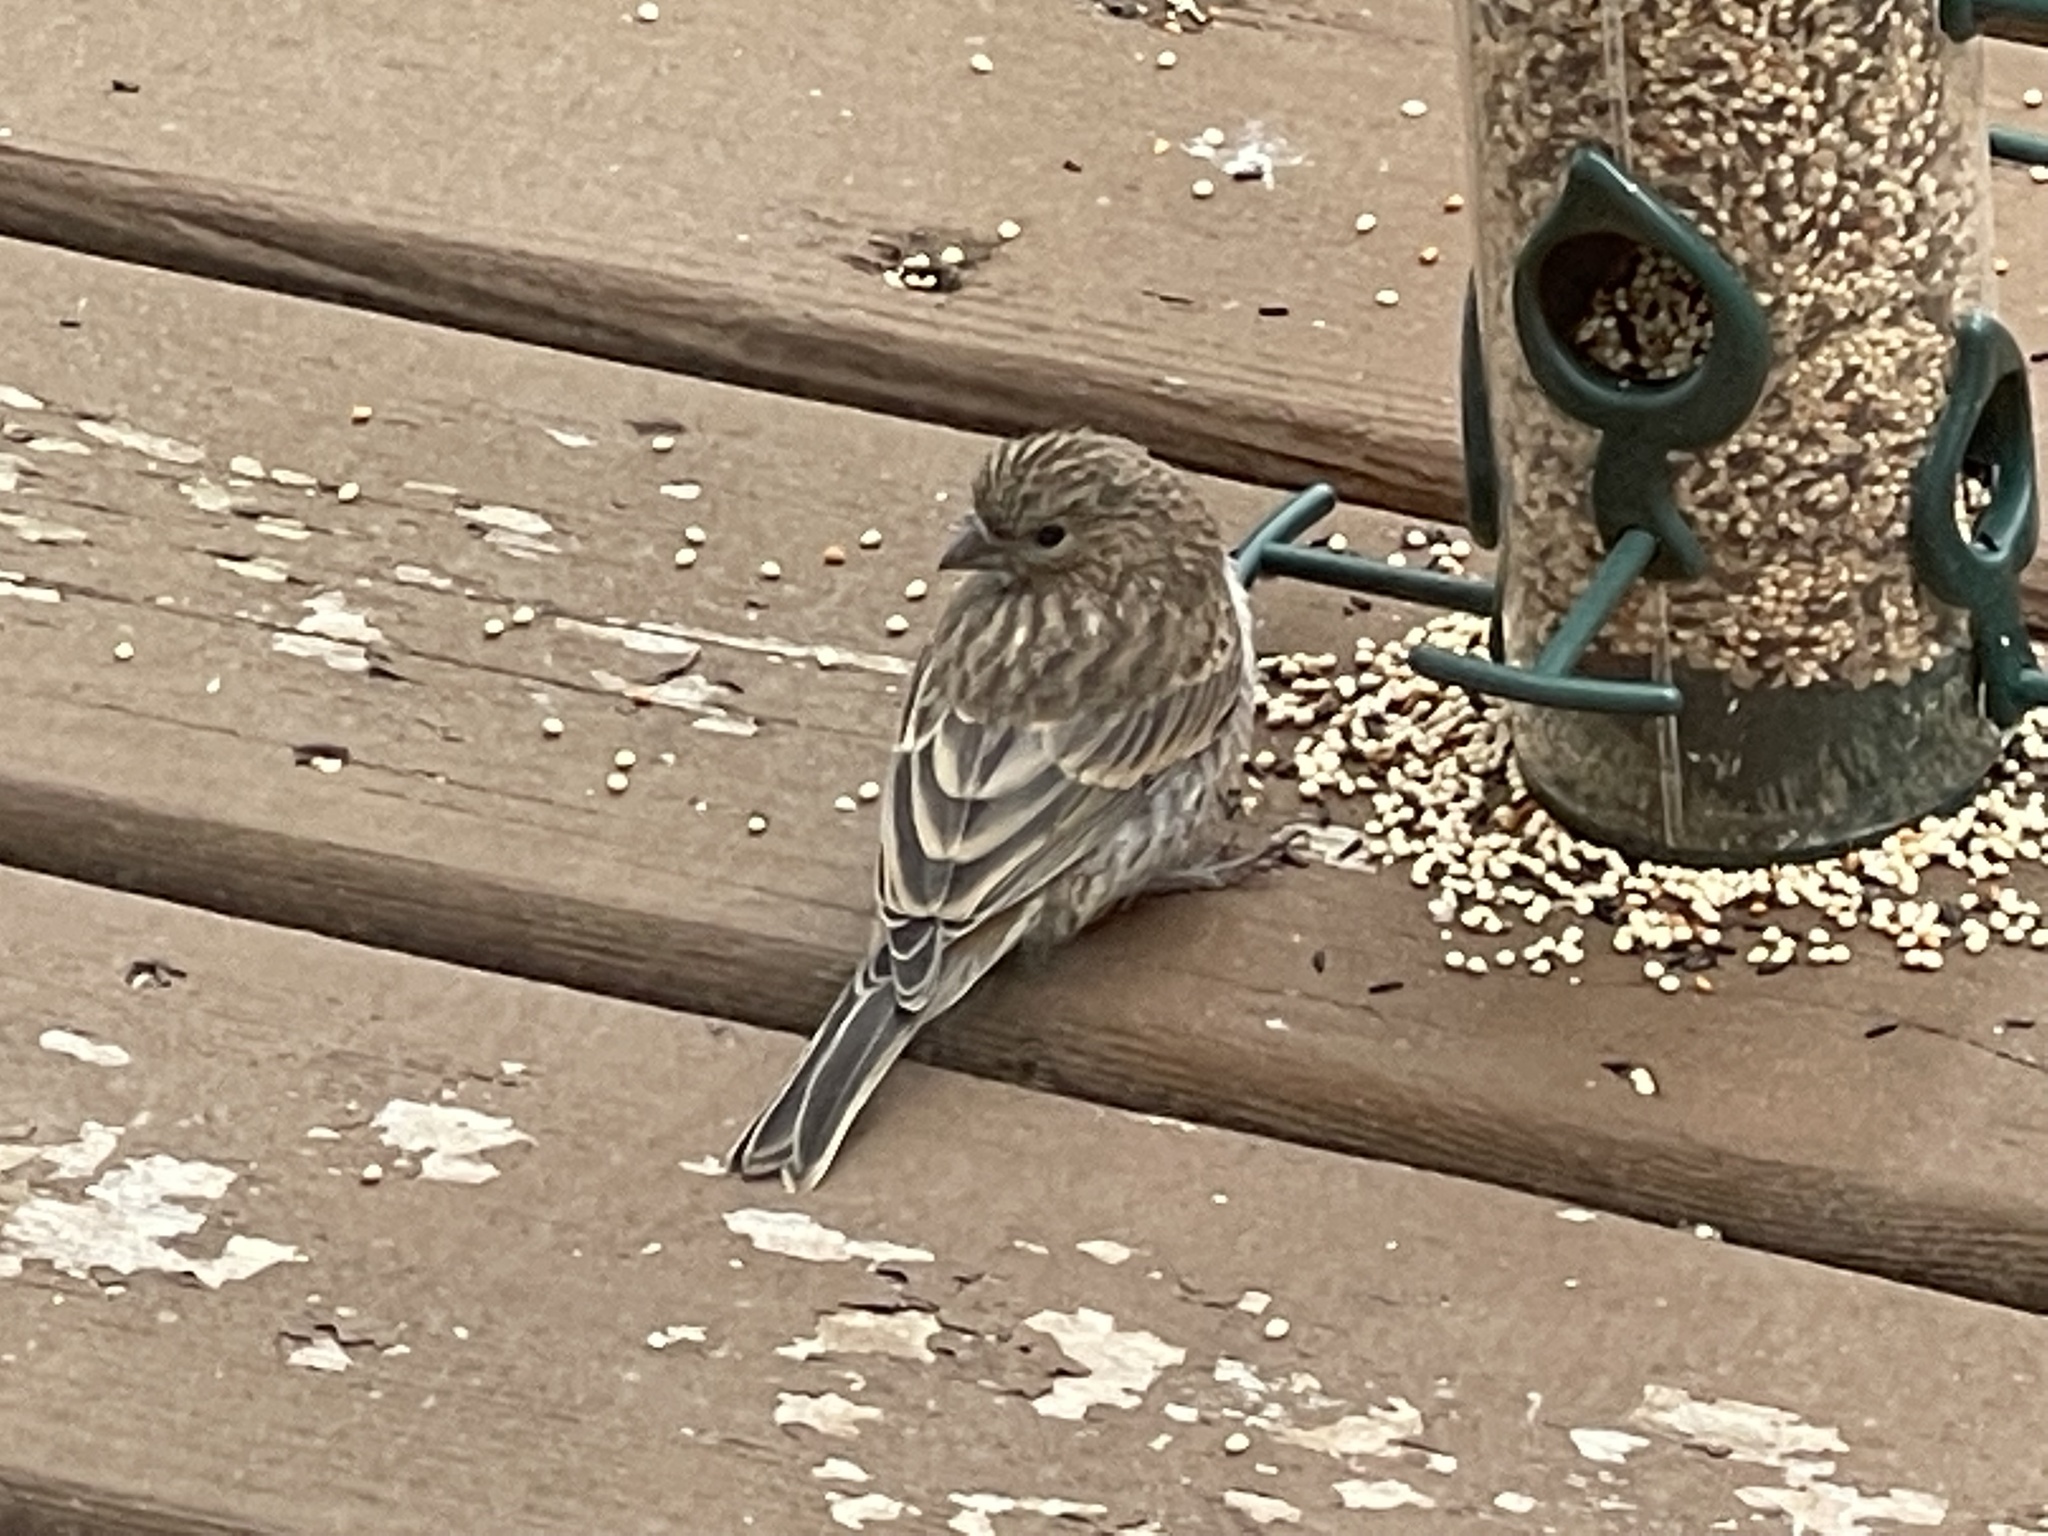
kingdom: Animalia
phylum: Chordata
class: Aves
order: Passeriformes
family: Fringillidae
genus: Haemorhous
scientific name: Haemorhous mexicanus
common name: House finch
